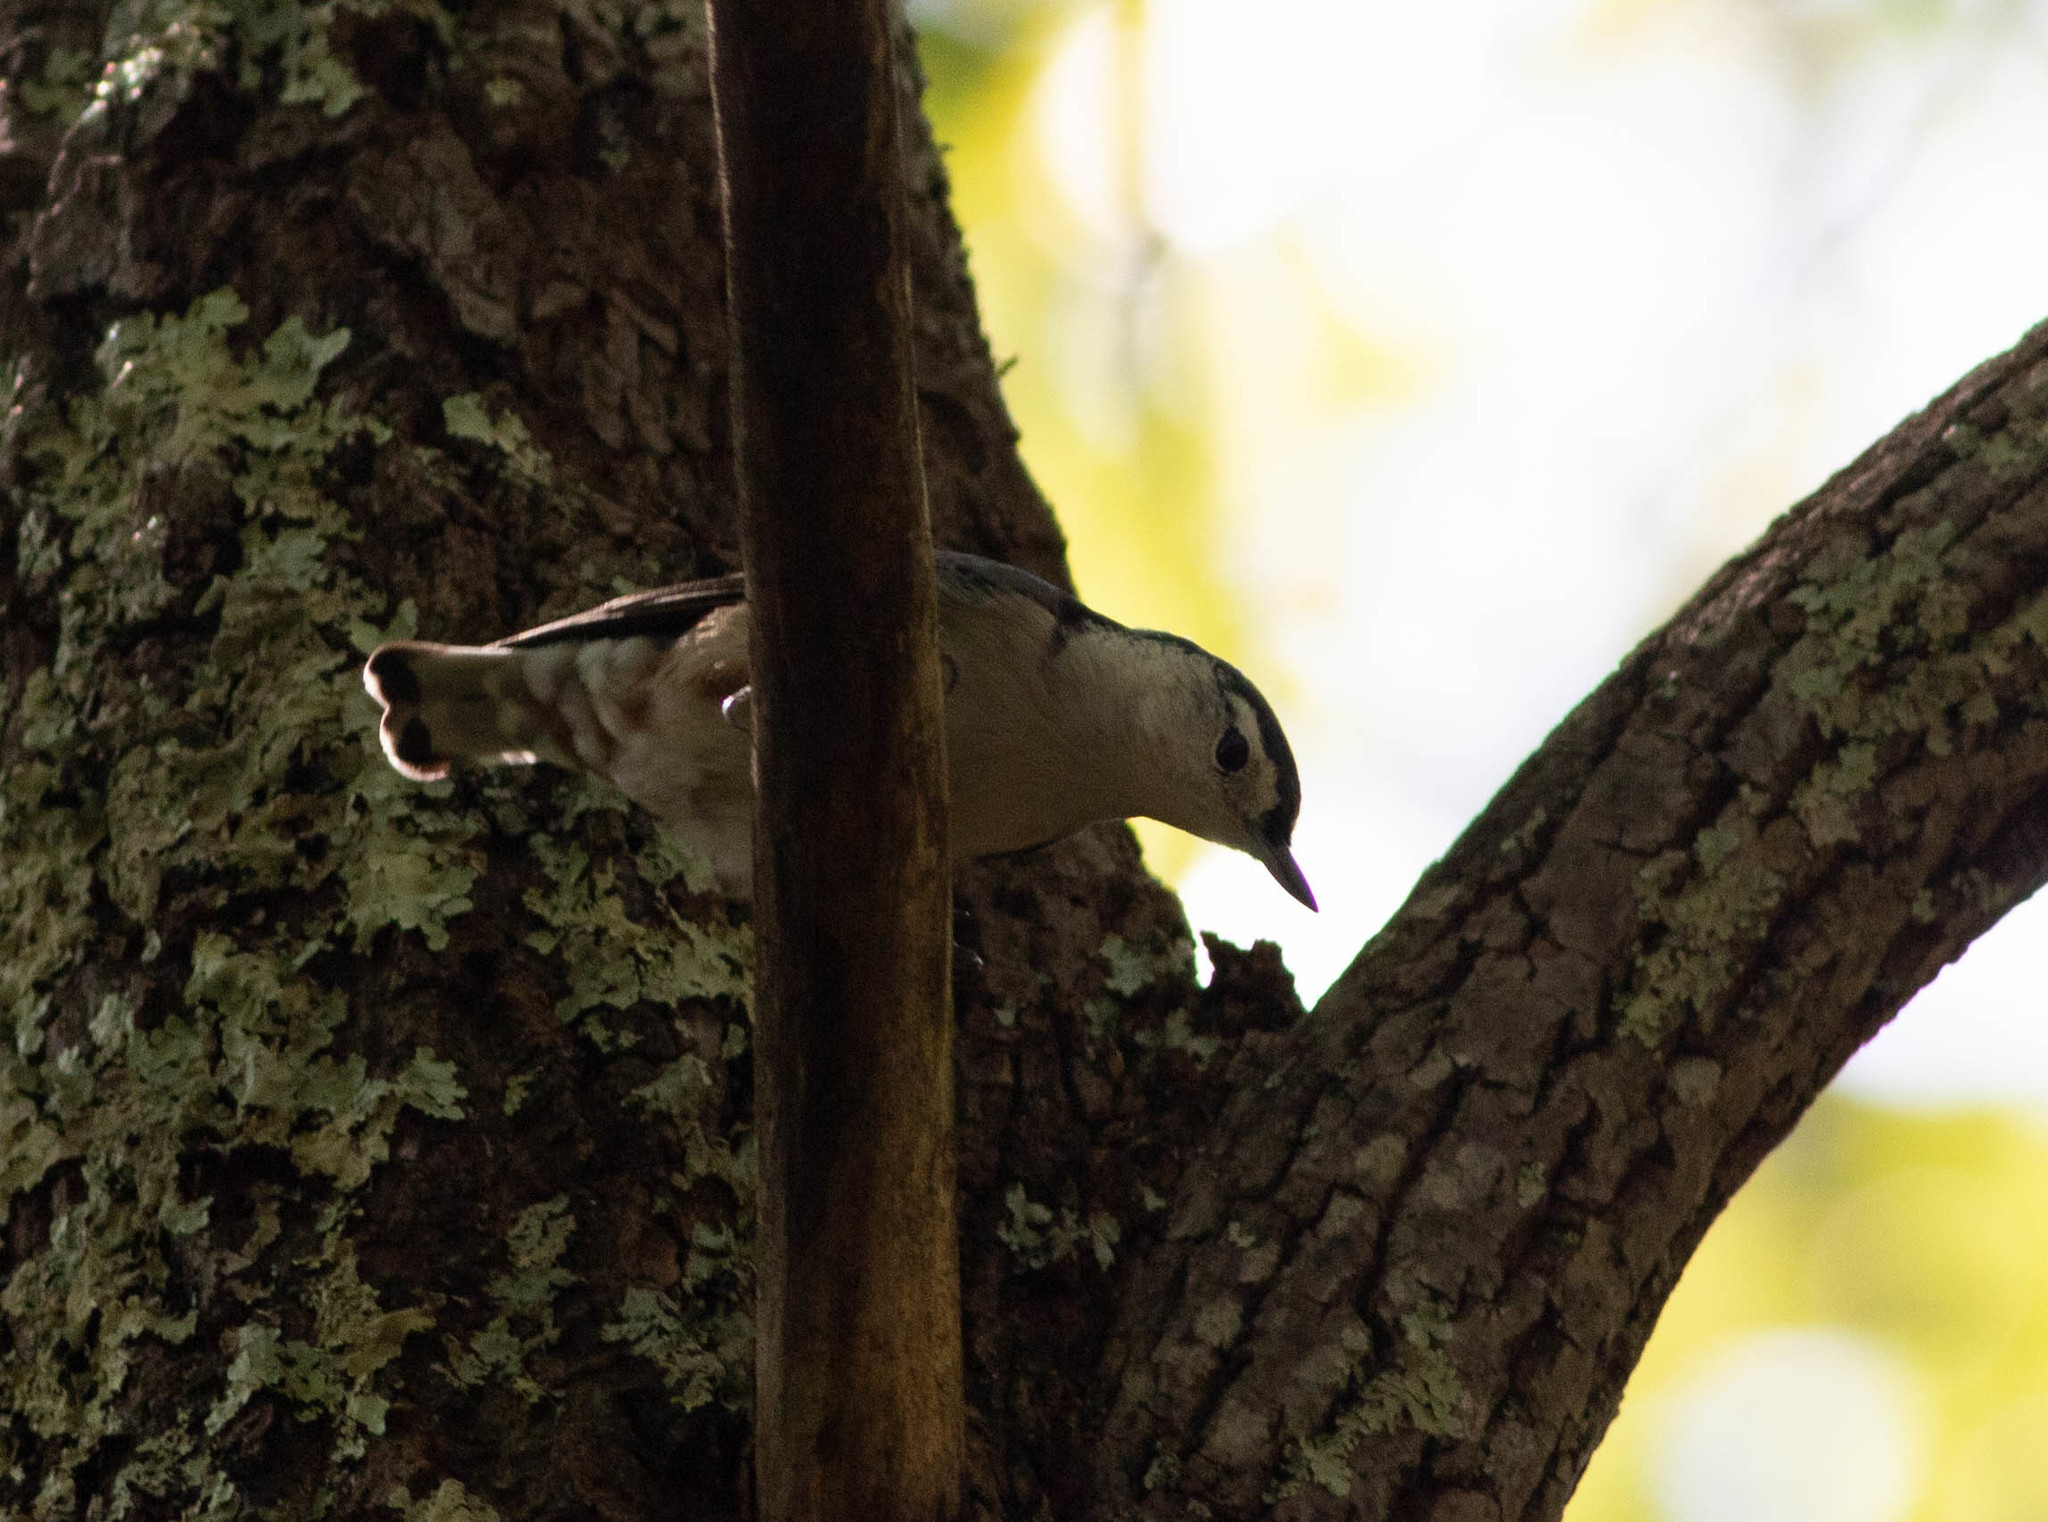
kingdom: Animalia
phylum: Chordata
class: Aves
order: Passeriformes
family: Sittidae
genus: Sitta
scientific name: Sitta carolinensis
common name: White-breasted nuthatch
